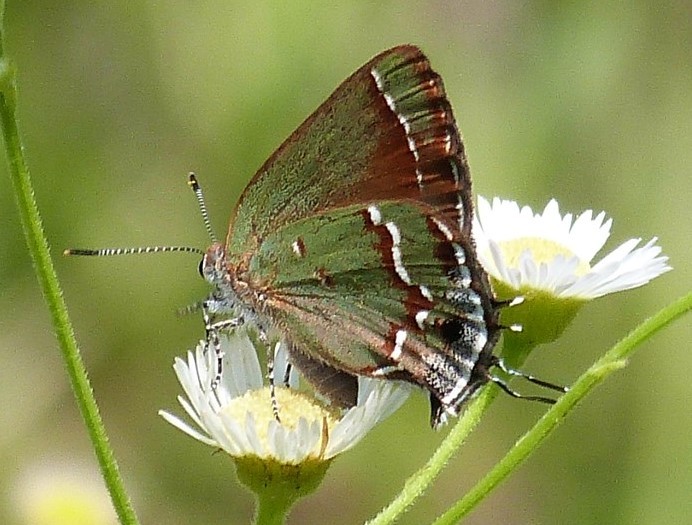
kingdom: Animalia
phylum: Arthropoda
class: Insecta
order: Lepidoptera
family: Lycaenidae
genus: Mitoura
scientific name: Mitoura gryneus
